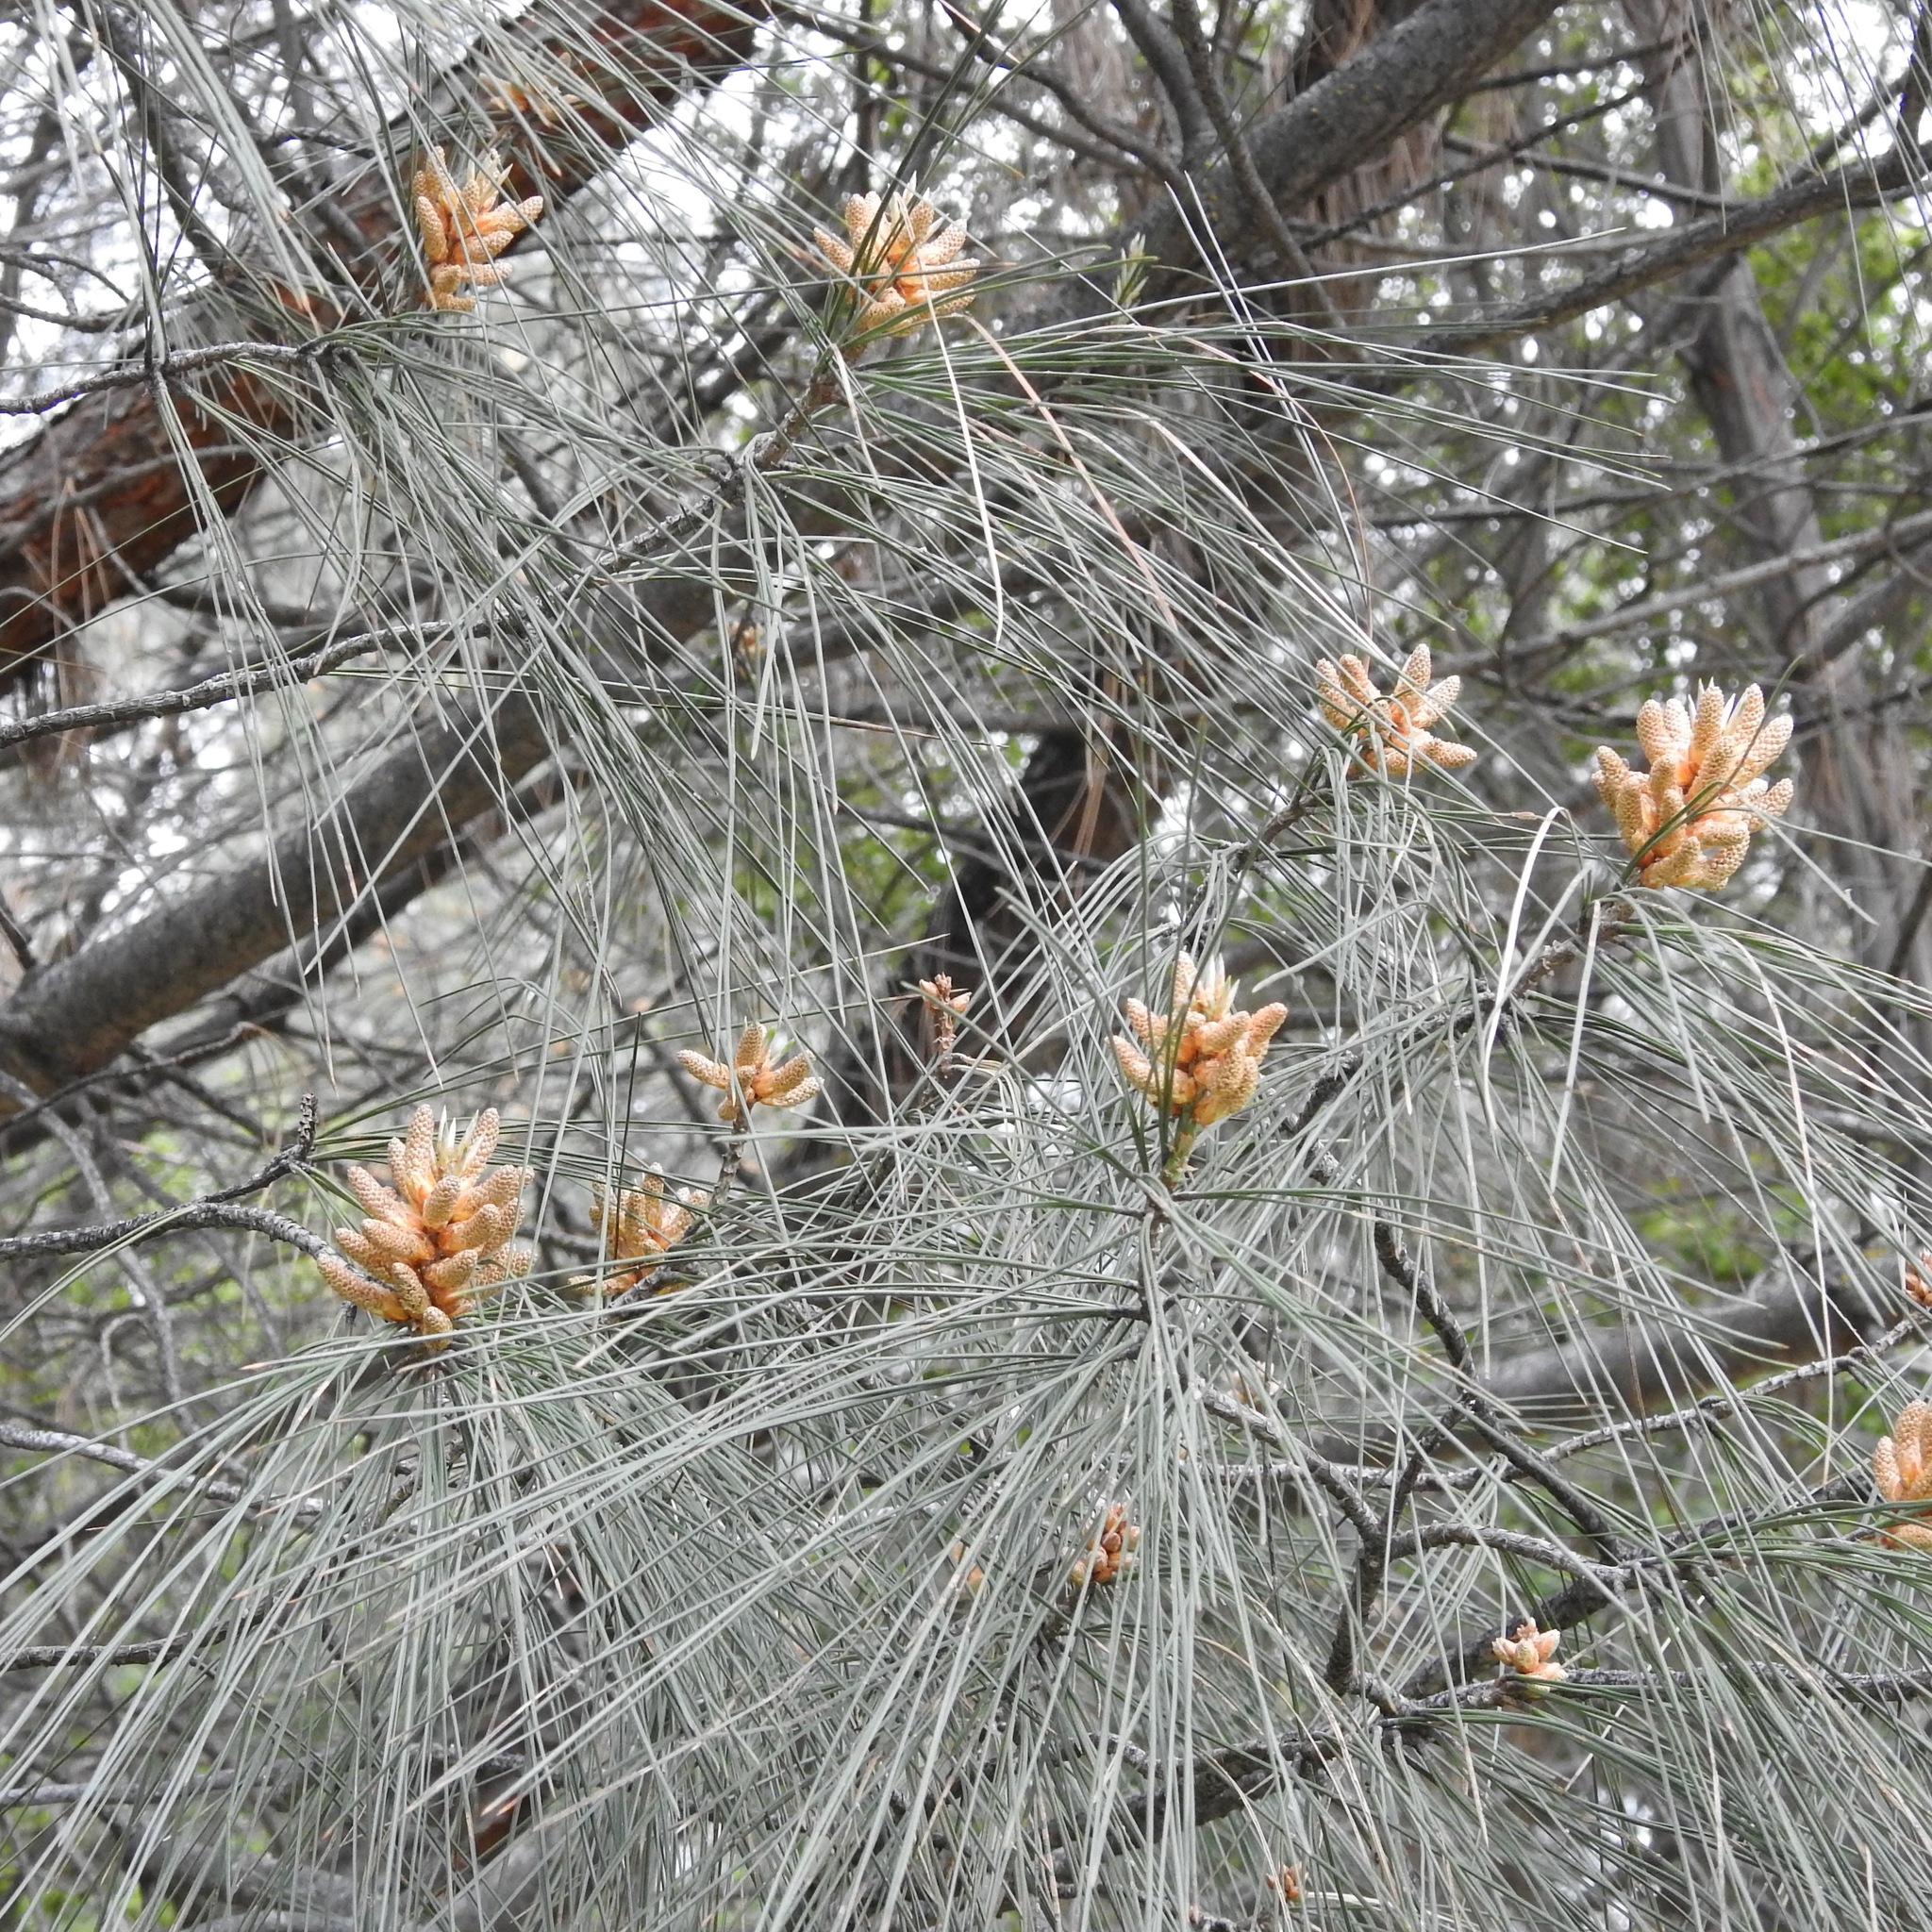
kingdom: Plantae
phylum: Tracheophyta
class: Pinopsida
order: Pinales
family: Pinaceae
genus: Pinus
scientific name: Pinus sabiniana
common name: Bull pine
